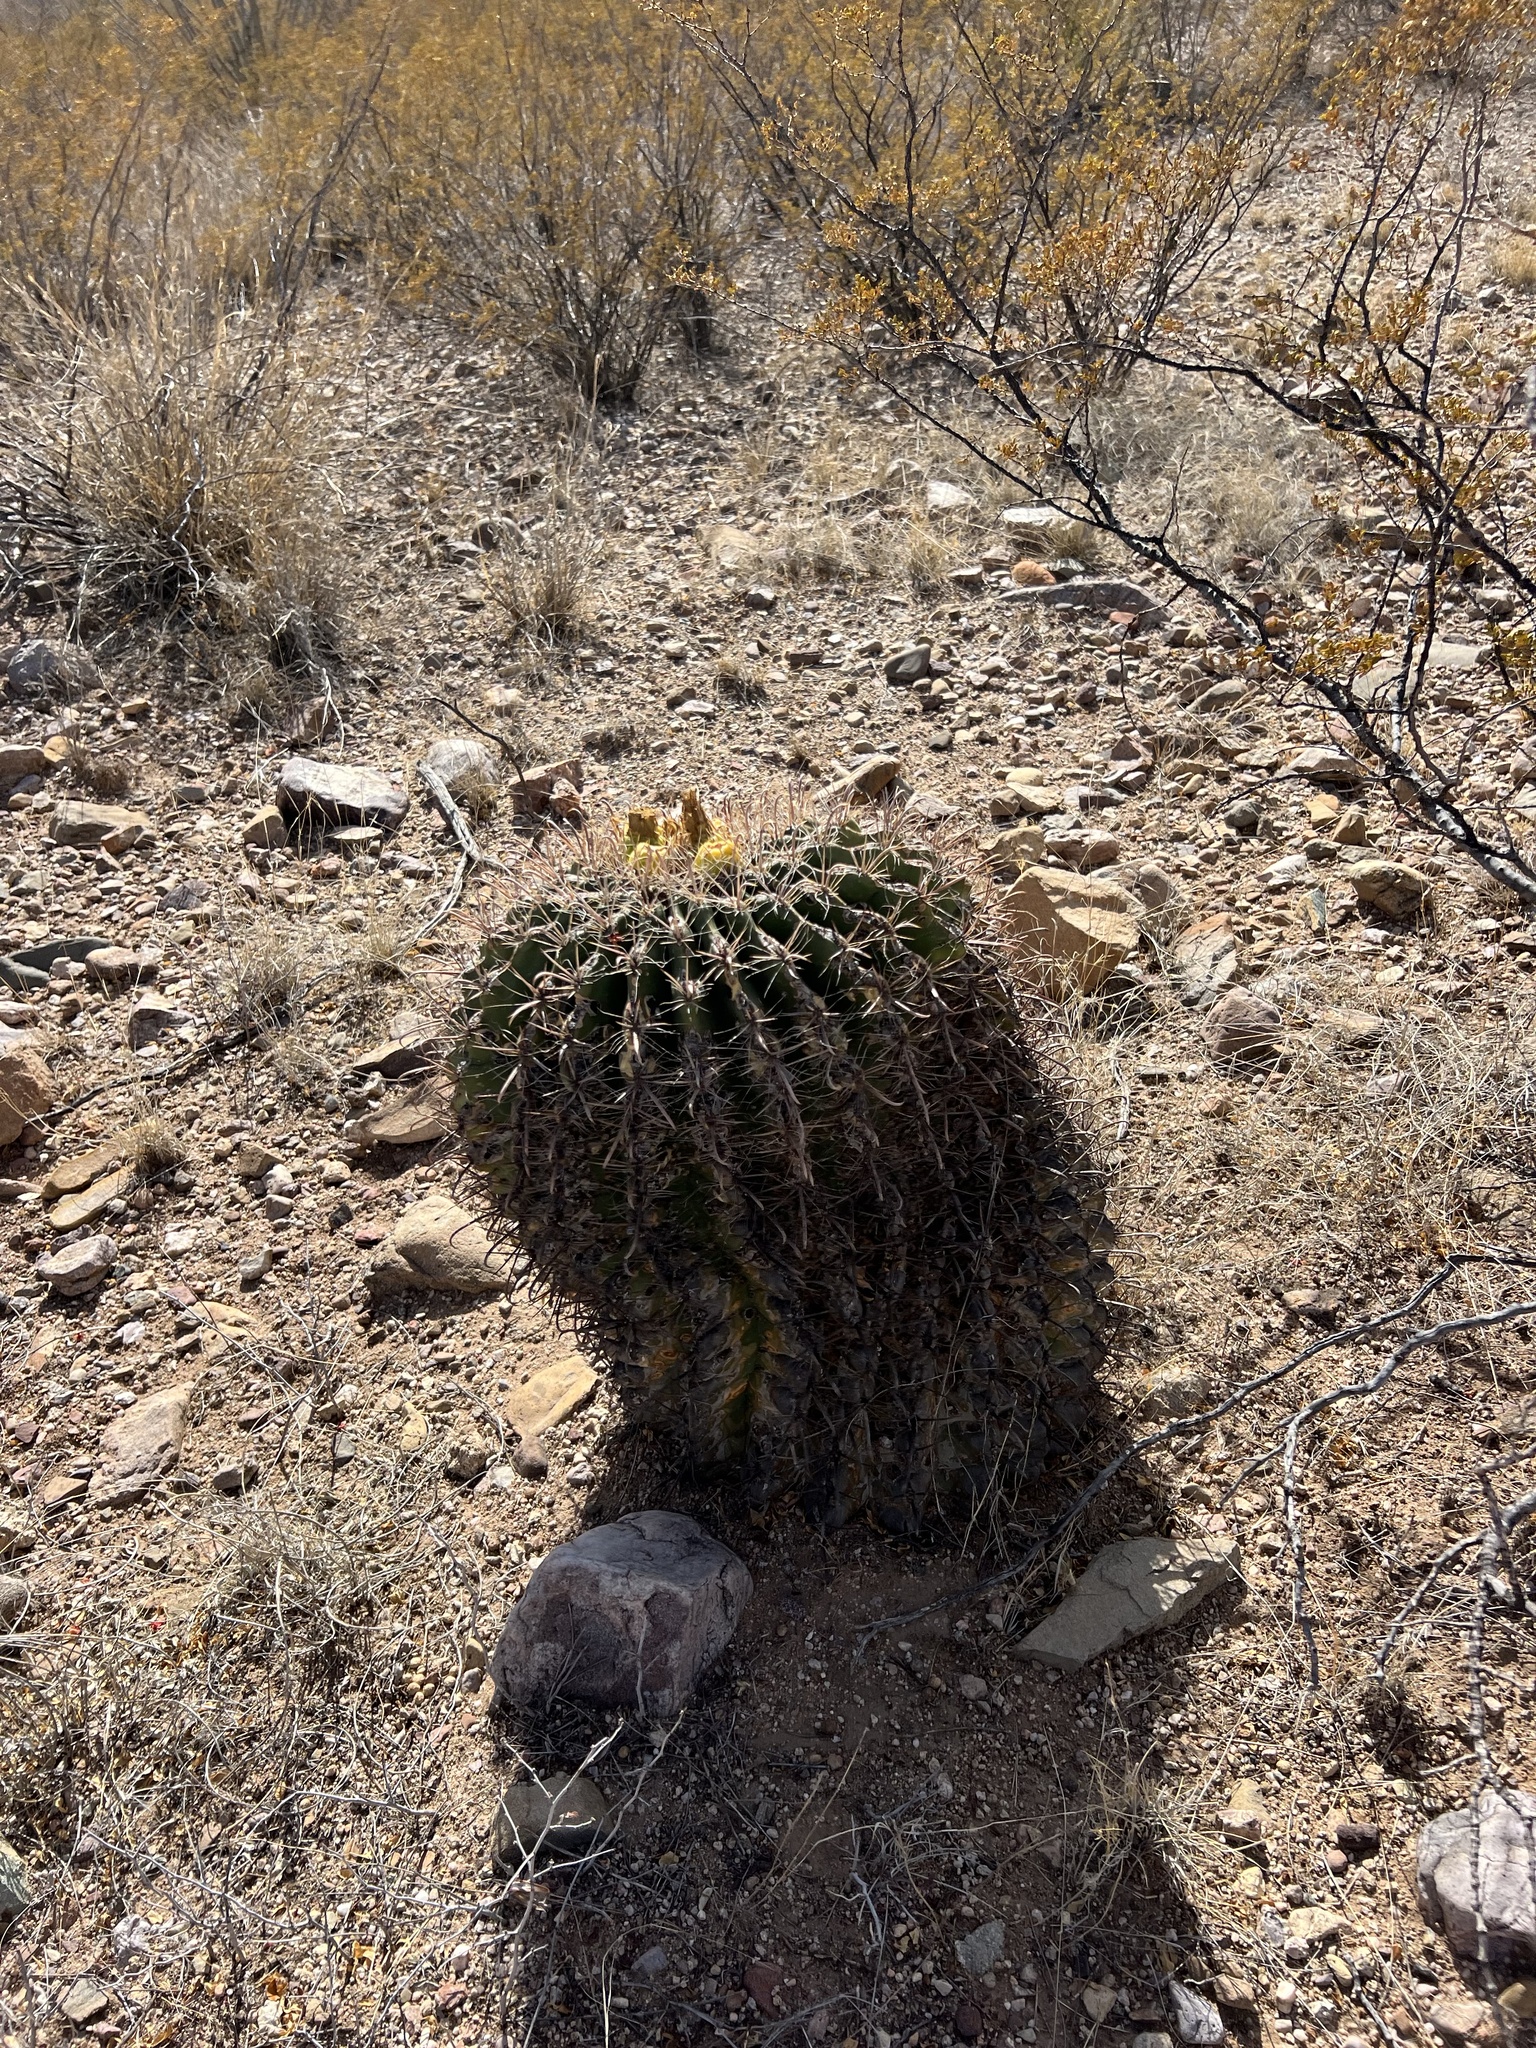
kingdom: Plantae
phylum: Tracheophyta
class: Magnoliopsida
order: Caryophyllales
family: Cactaceae
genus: Ferocactus
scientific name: Ferocactus wislizeni
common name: Candy barrel cactus
